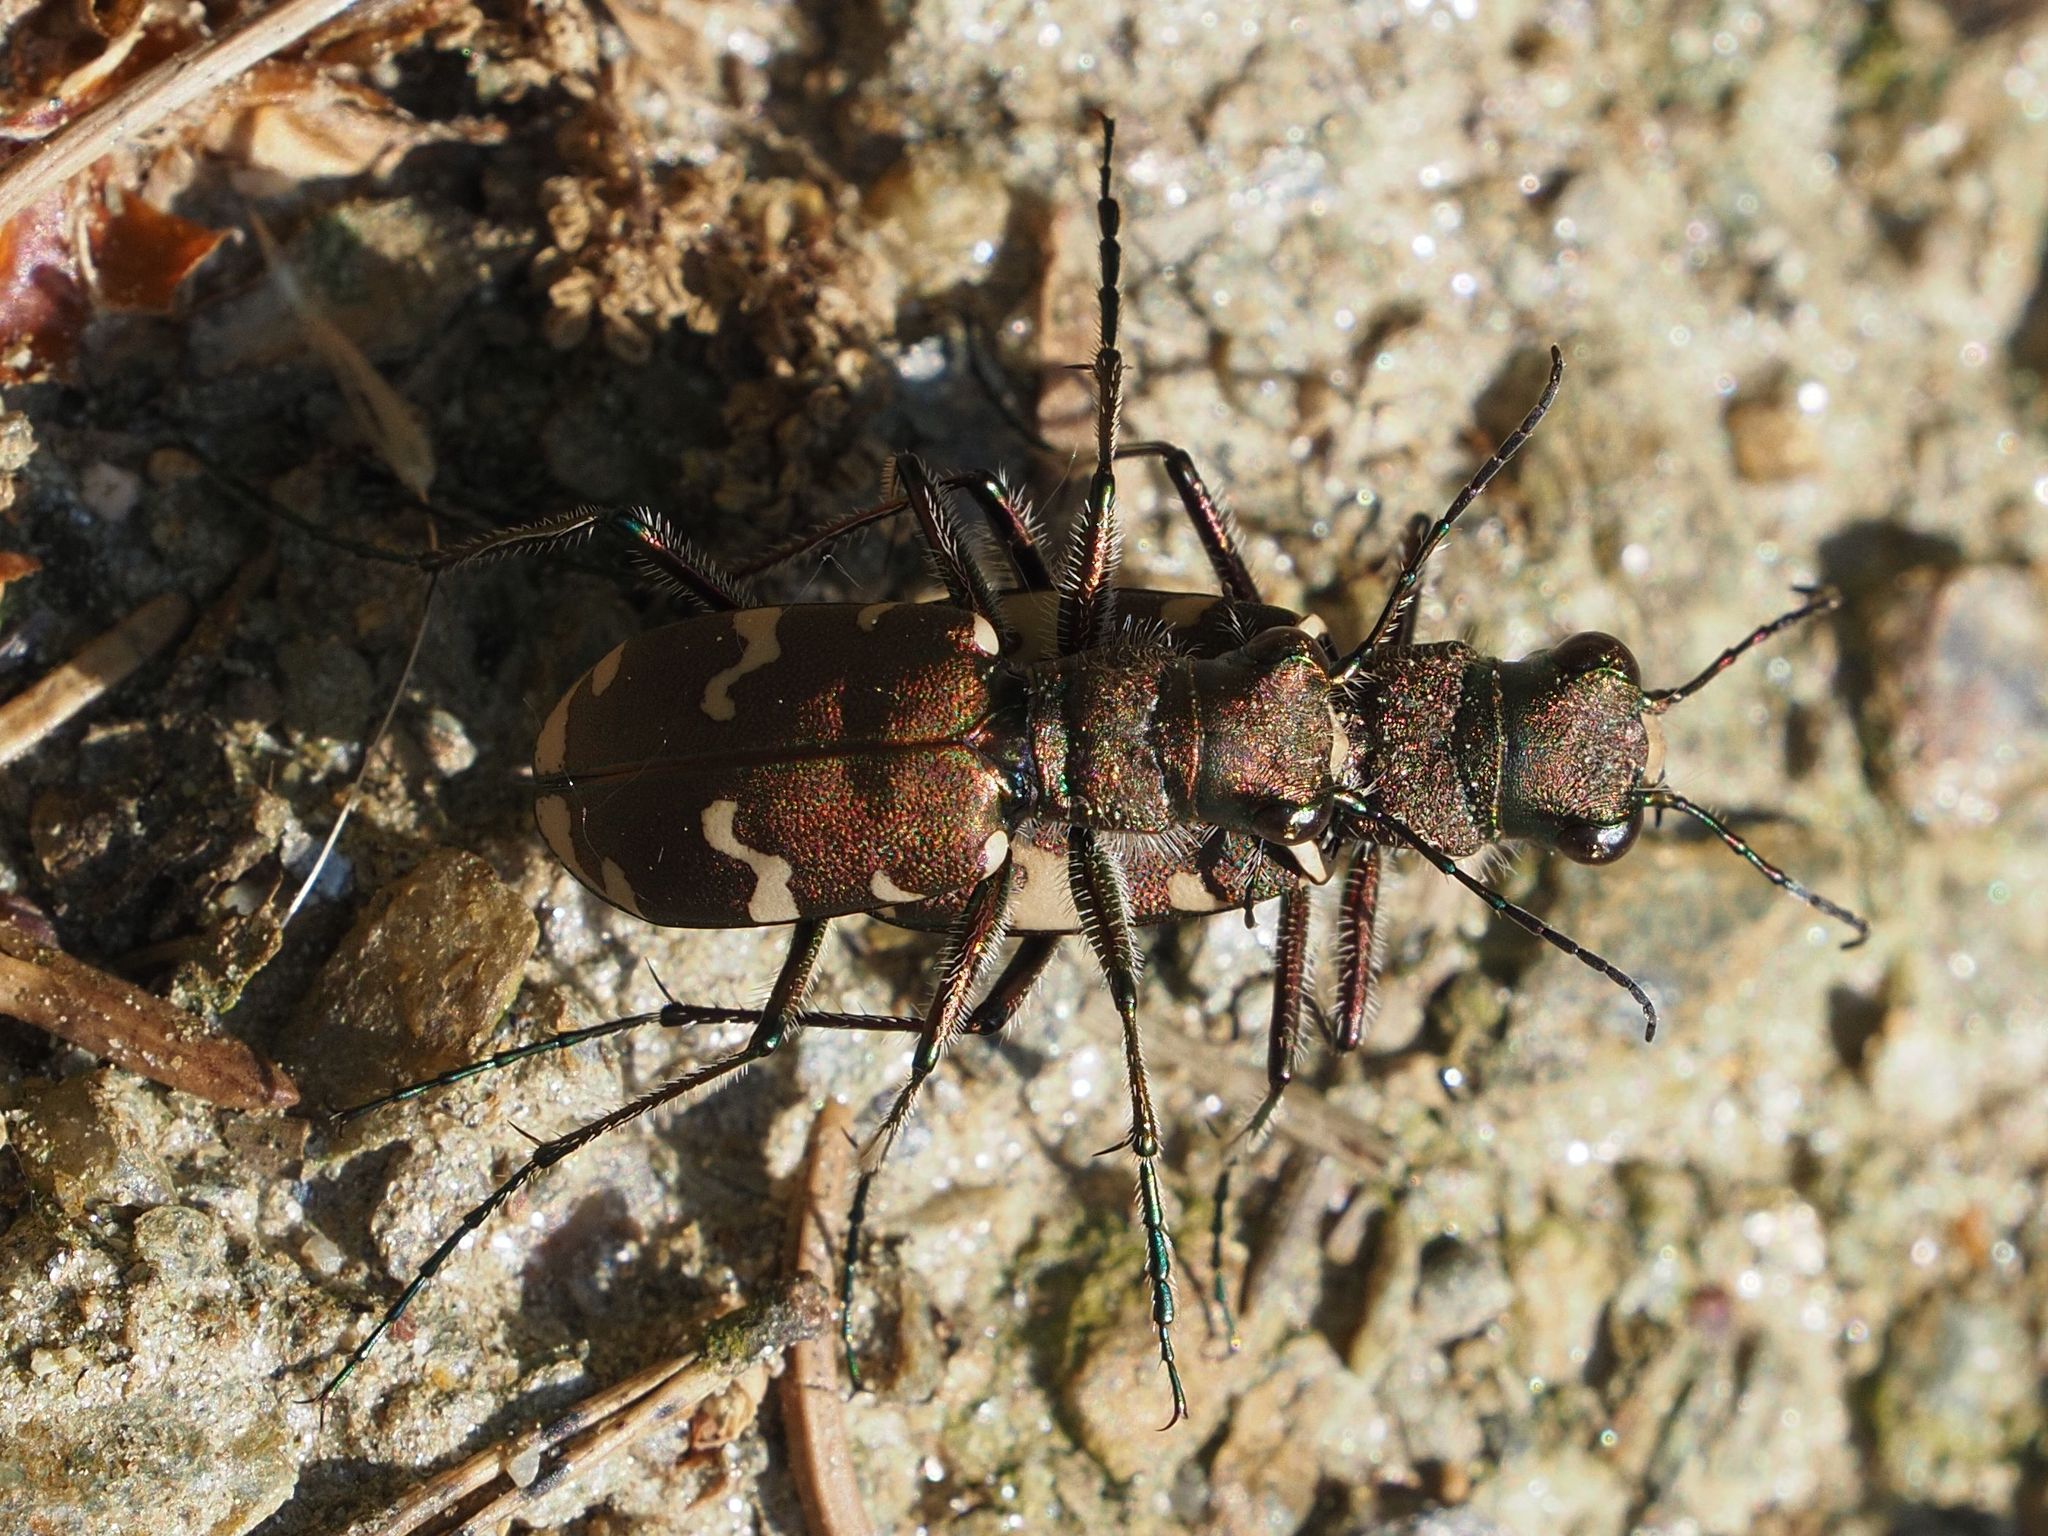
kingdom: Animalia
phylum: Arthropoda
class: Insecta
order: Coleoptera
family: Carabidae
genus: Cicindela
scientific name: Cicindela sylvicola
